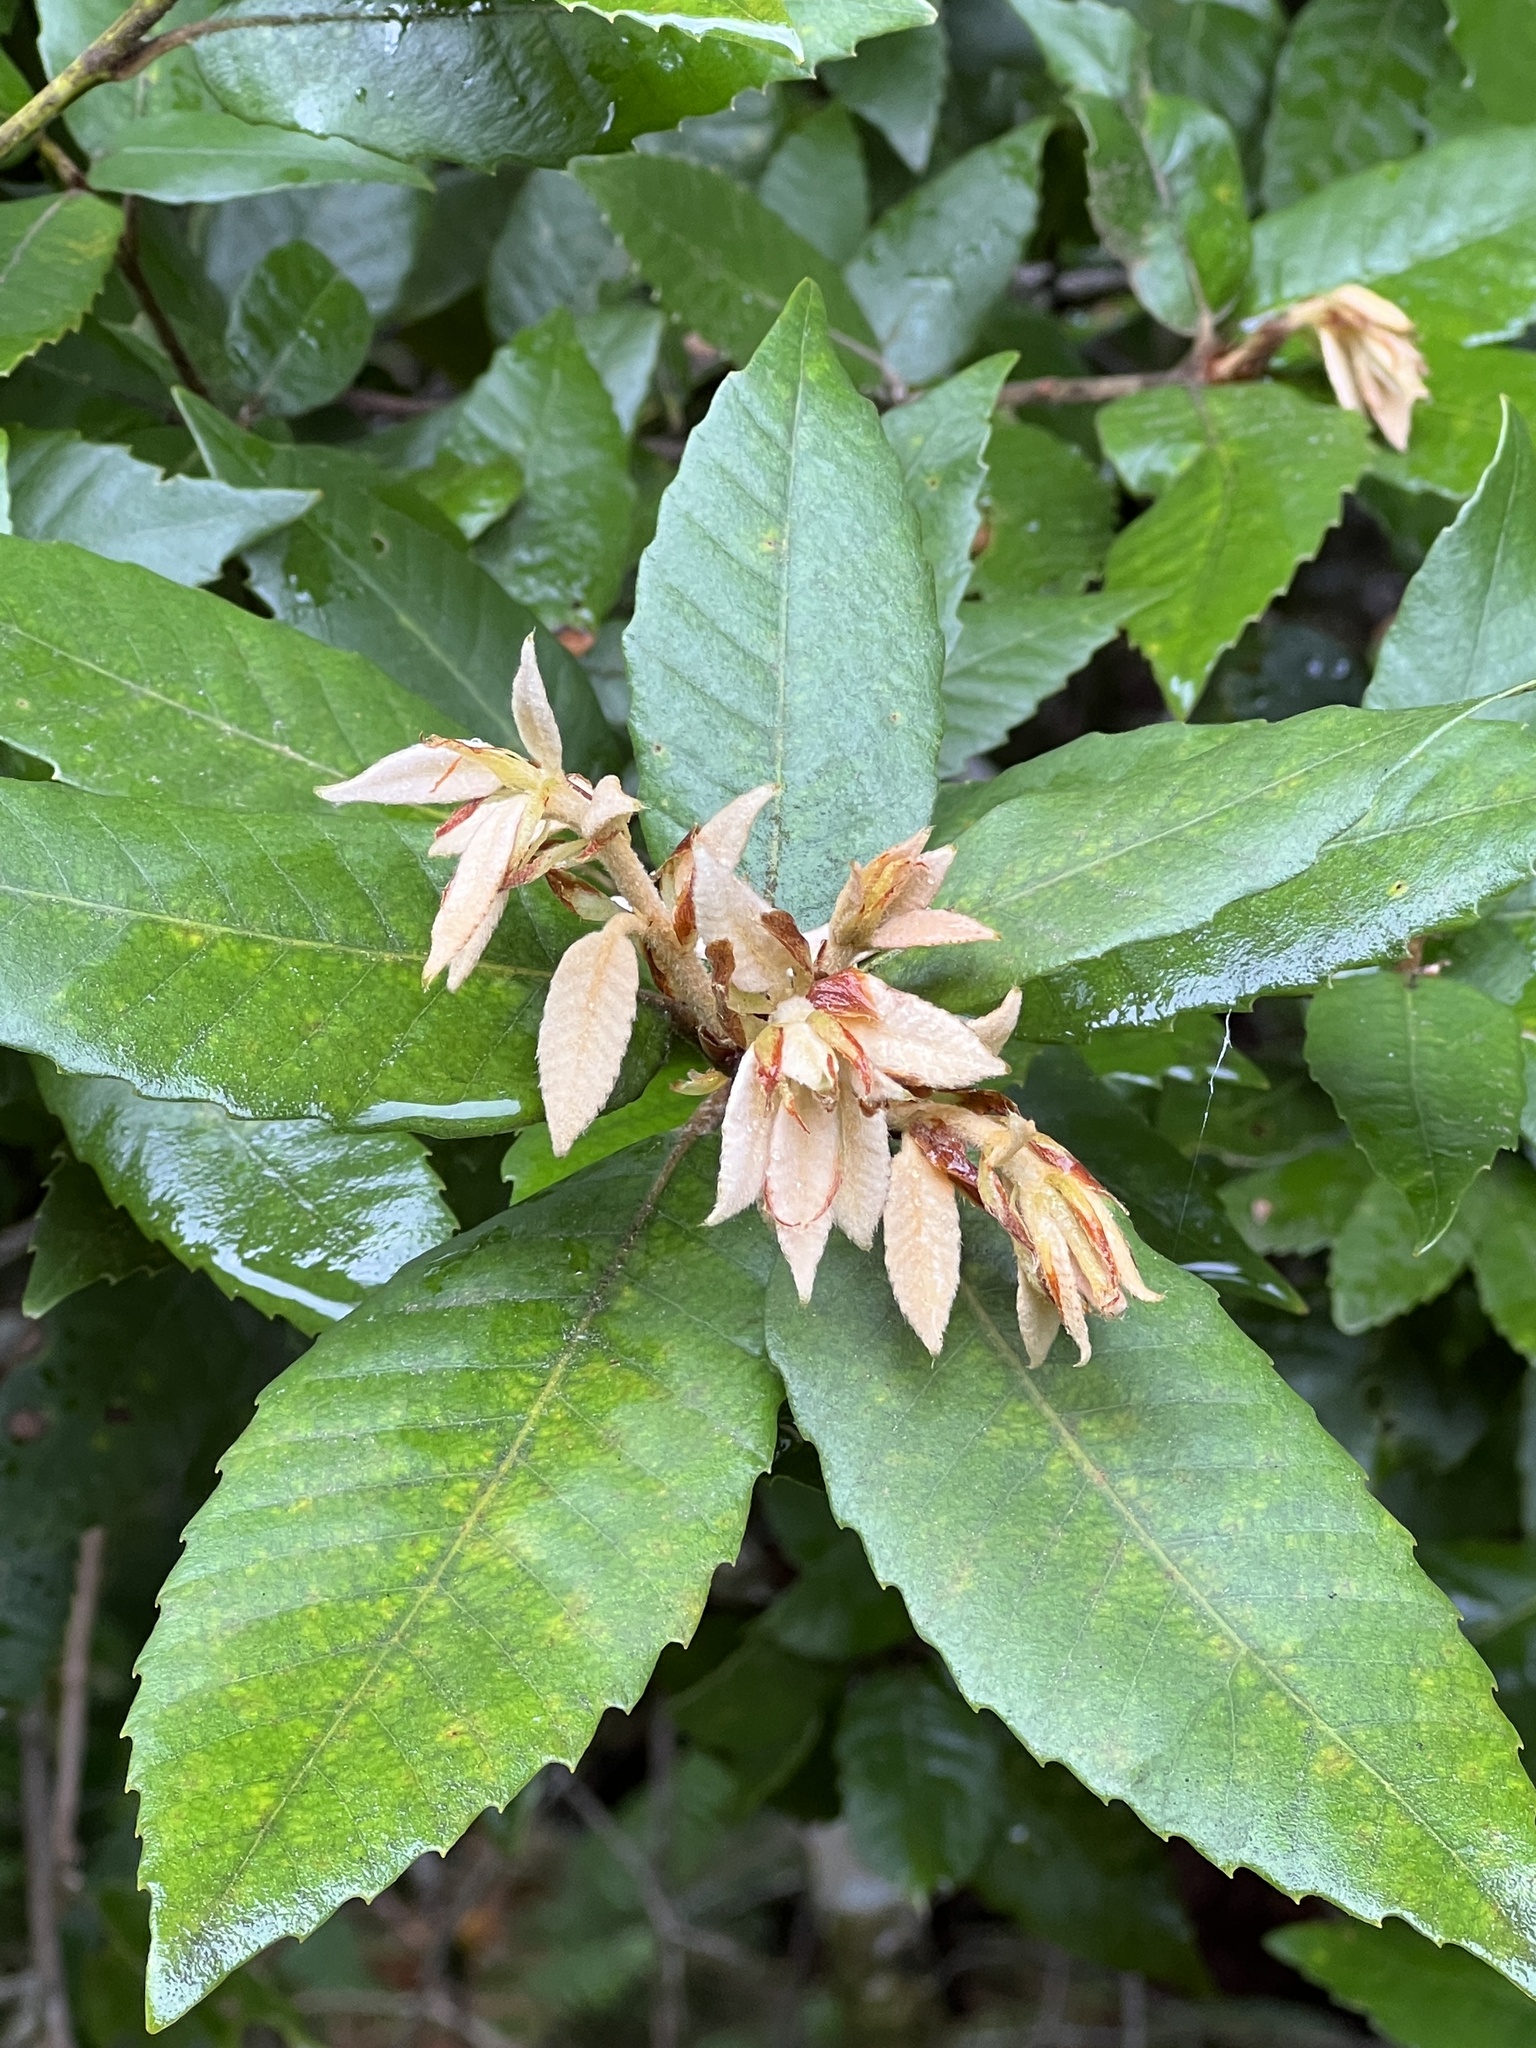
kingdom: Plantae
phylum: Tracheophyta
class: Magnoliopsida
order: Fagales
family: Fagaceae
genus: Notholithocarpus
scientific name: Notholithocarpus densiflorus
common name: Tan bark oak
